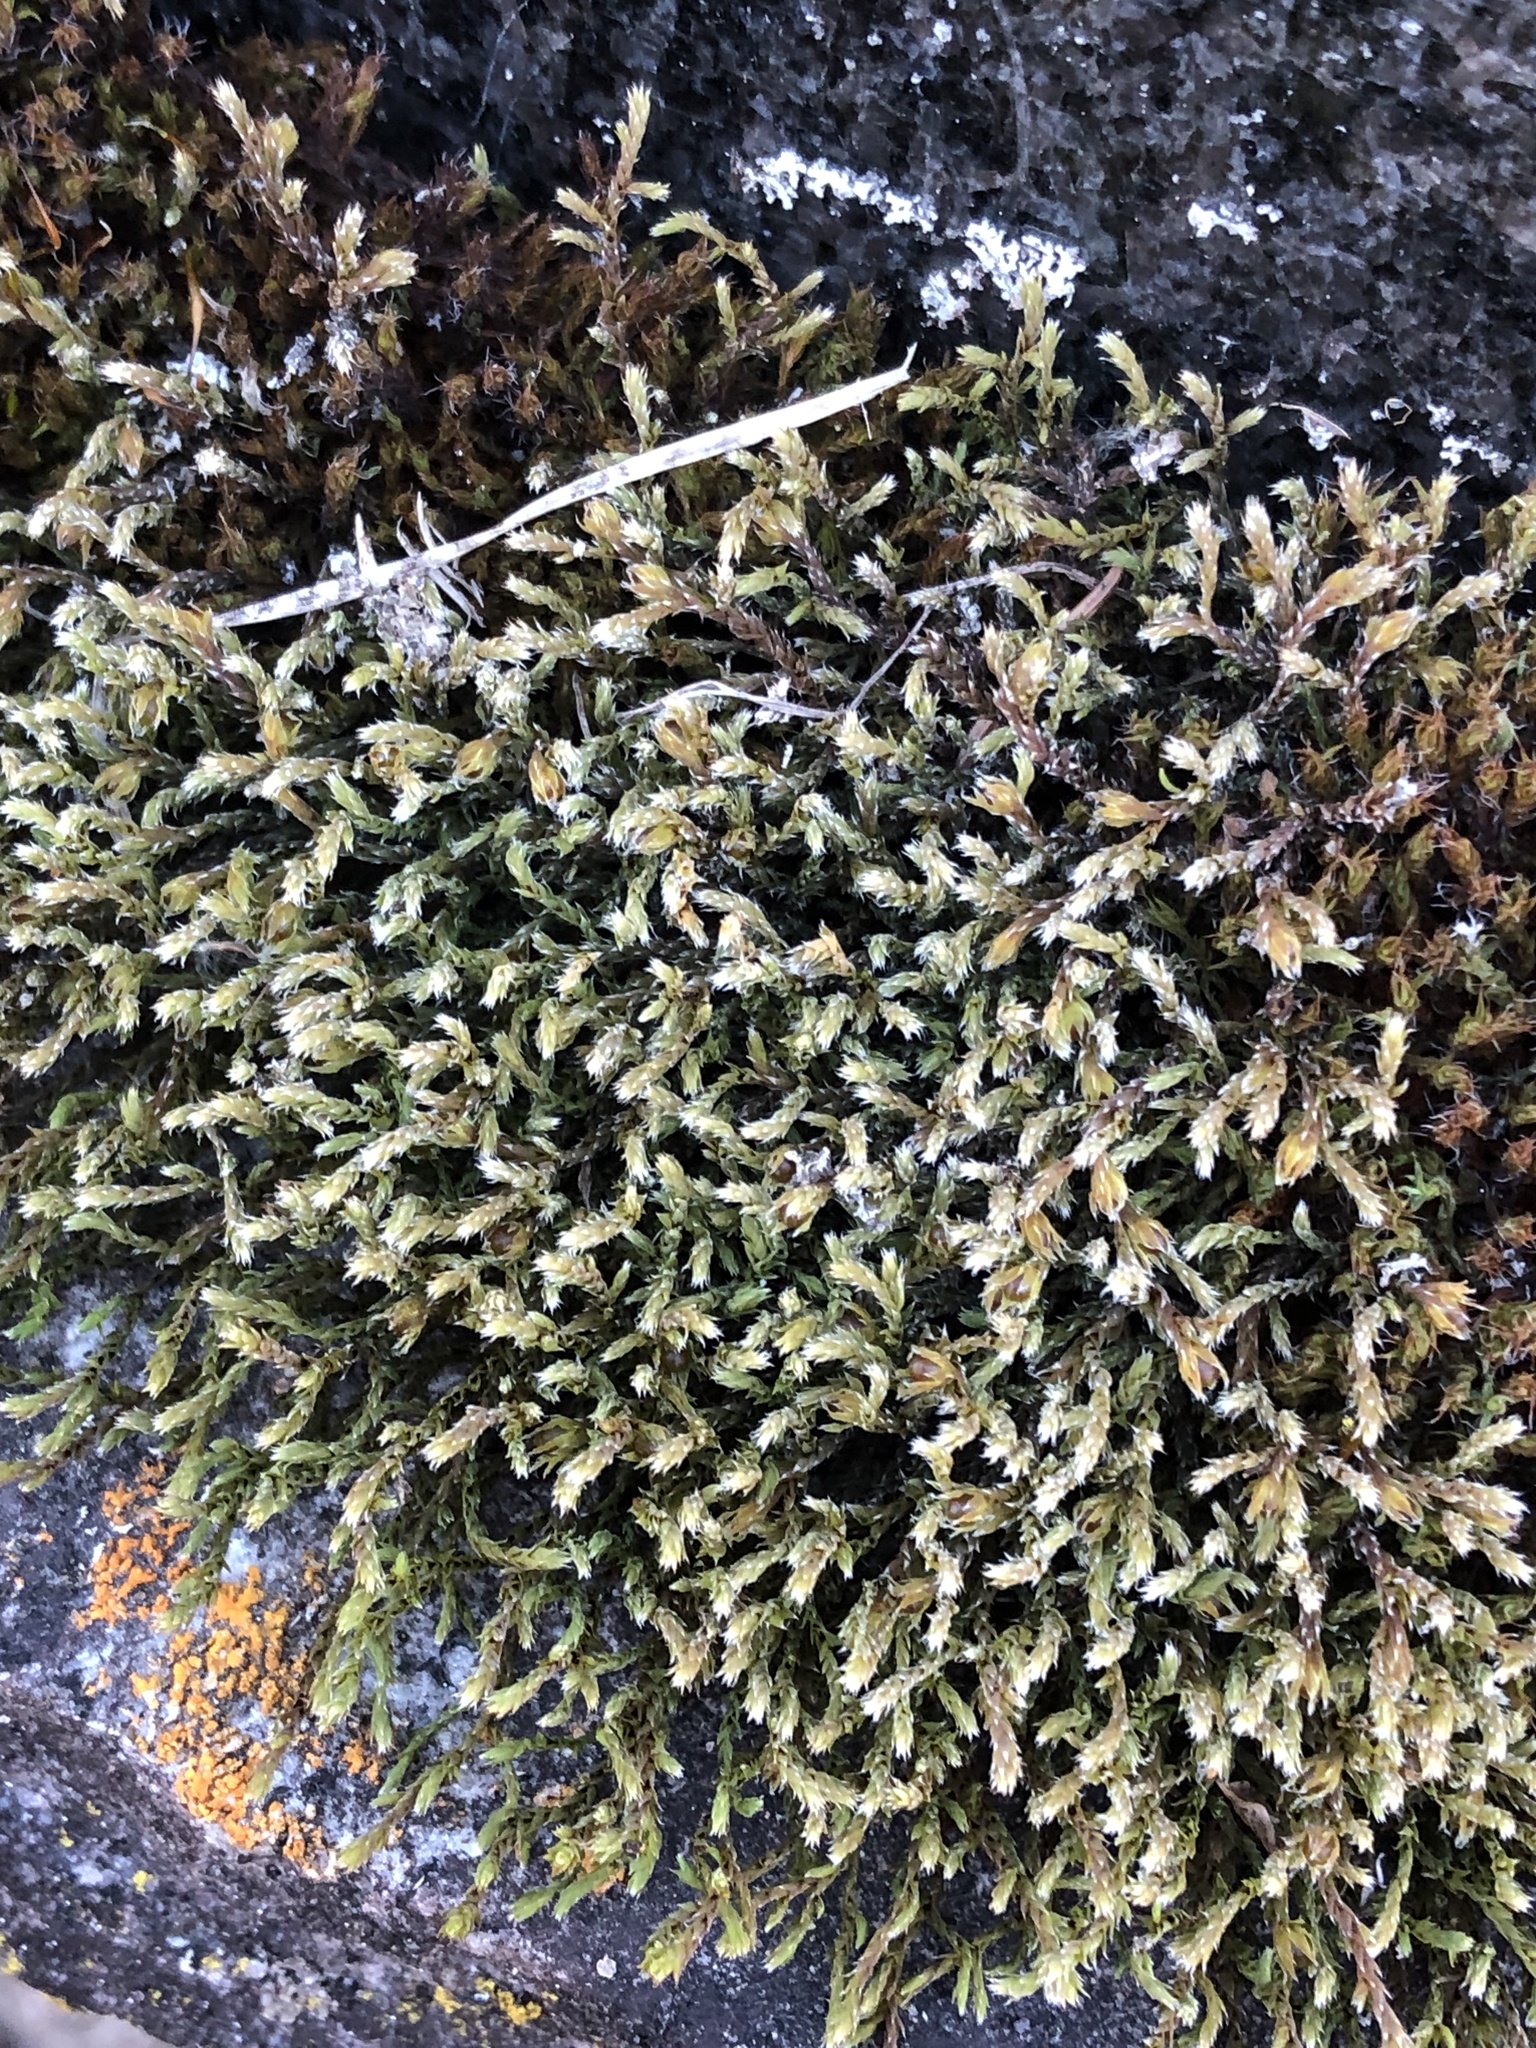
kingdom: Plantae
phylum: Bryophyta
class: Bryopsida
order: Hedwigiales
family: Hedwigiaceae
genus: Hedwigia
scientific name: Hedwigia ciliata
